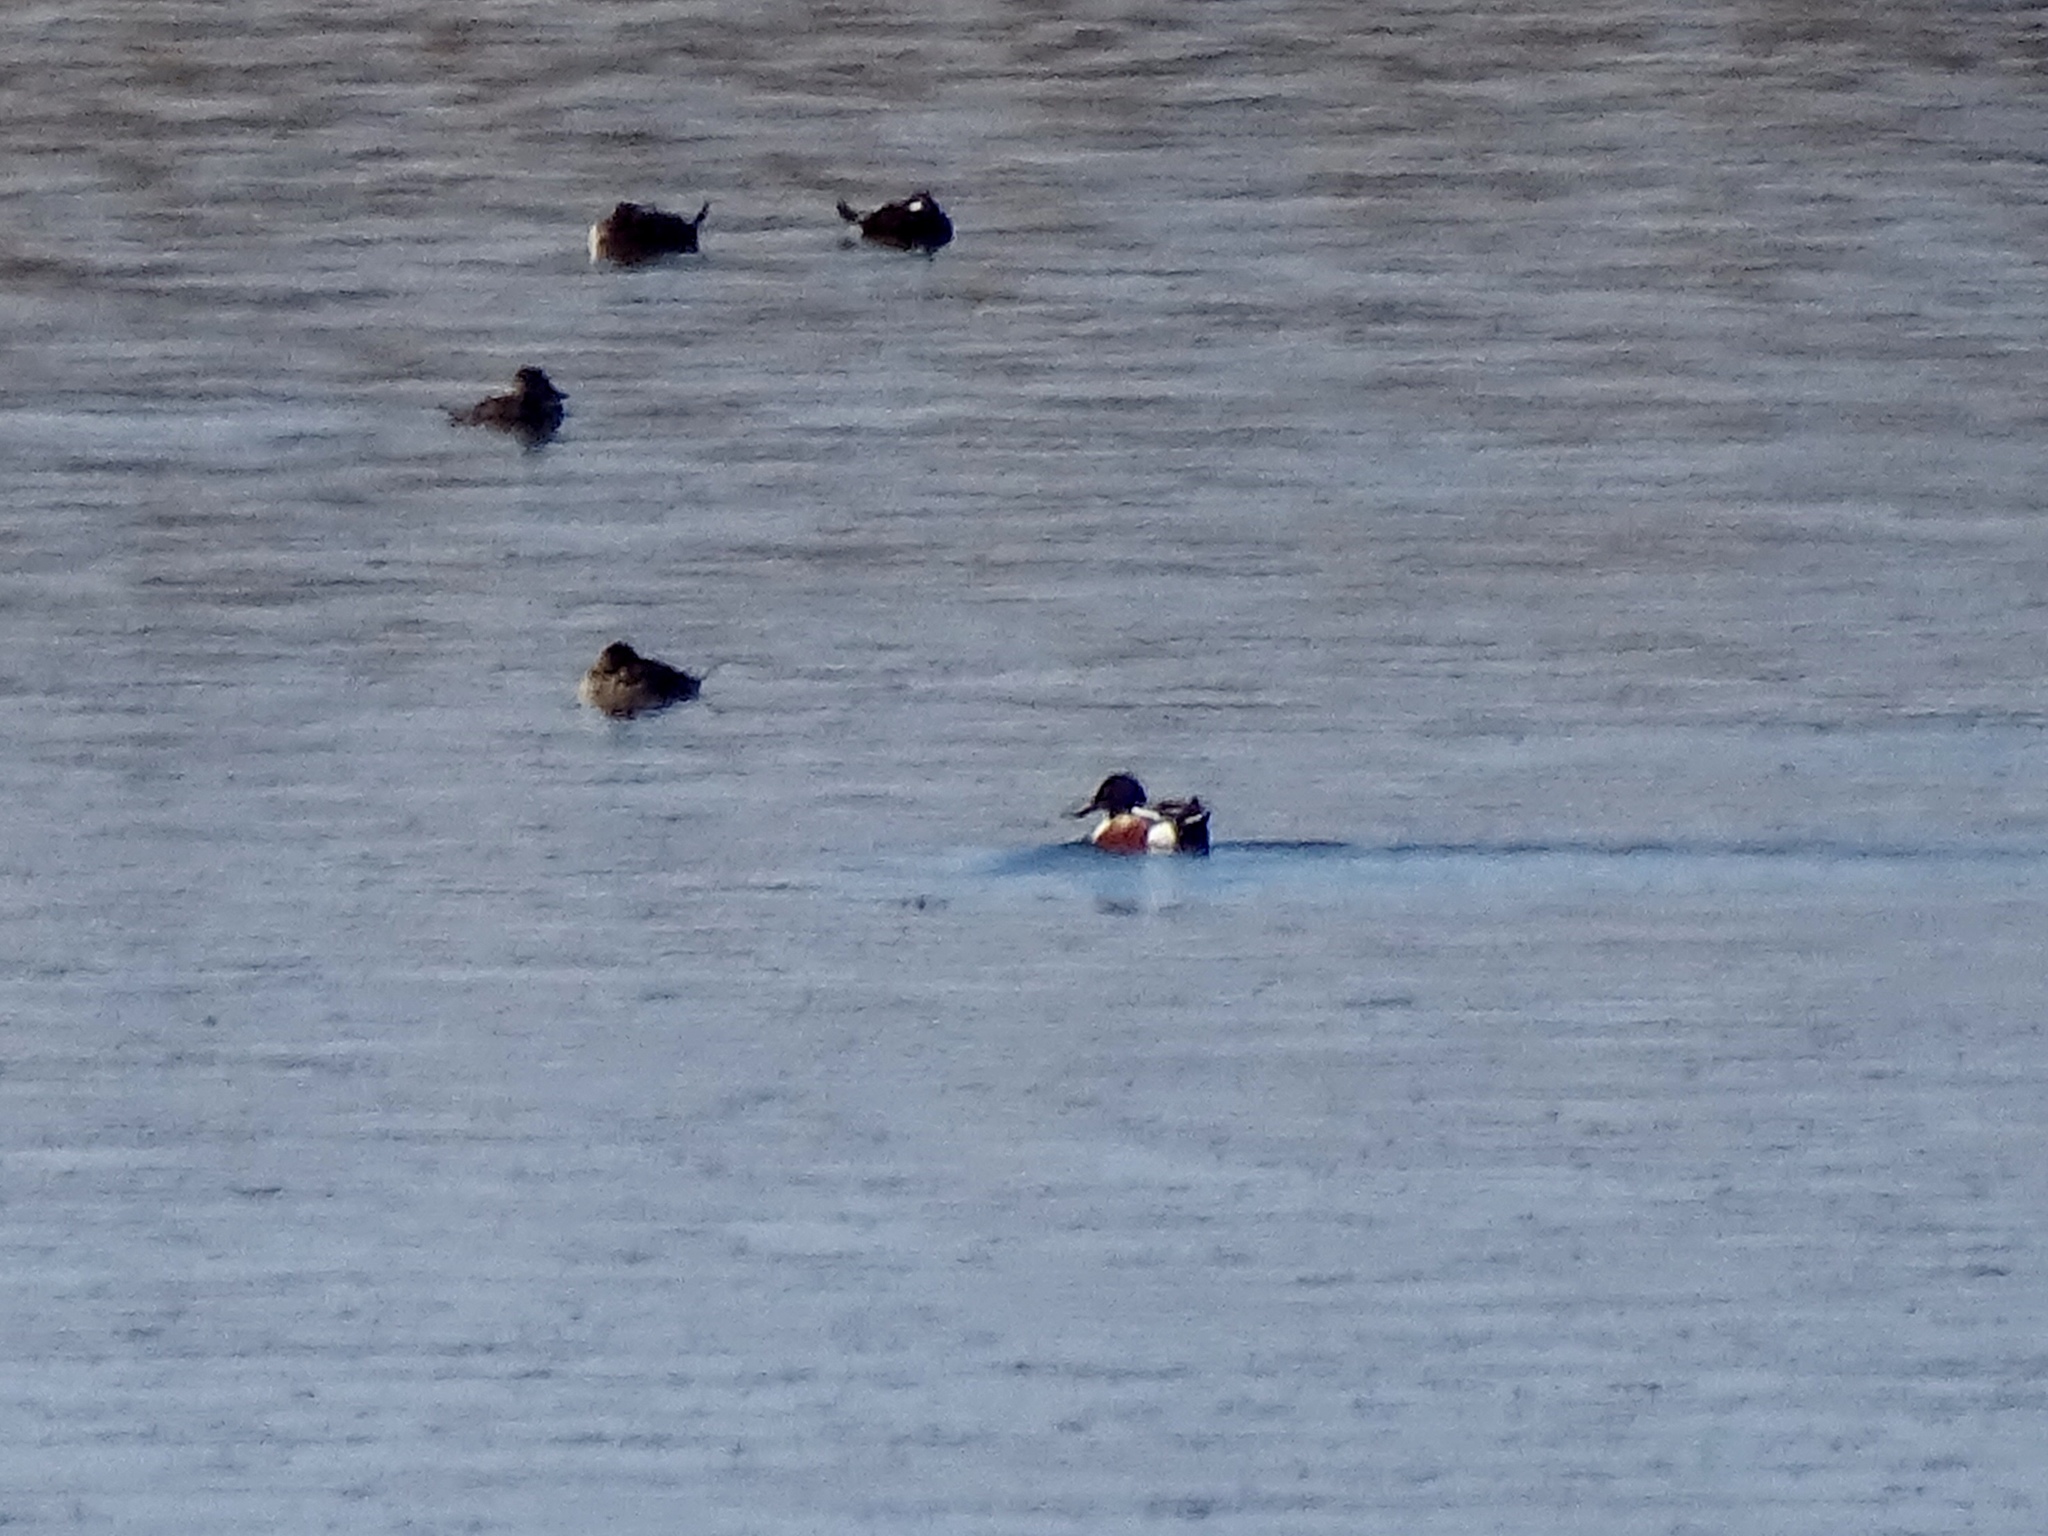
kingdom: Animalia
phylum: Chordata
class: Aves
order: Anseriformes
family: Anatidae
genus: Spatula
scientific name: Spatula clypeata
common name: Northern shoveler
